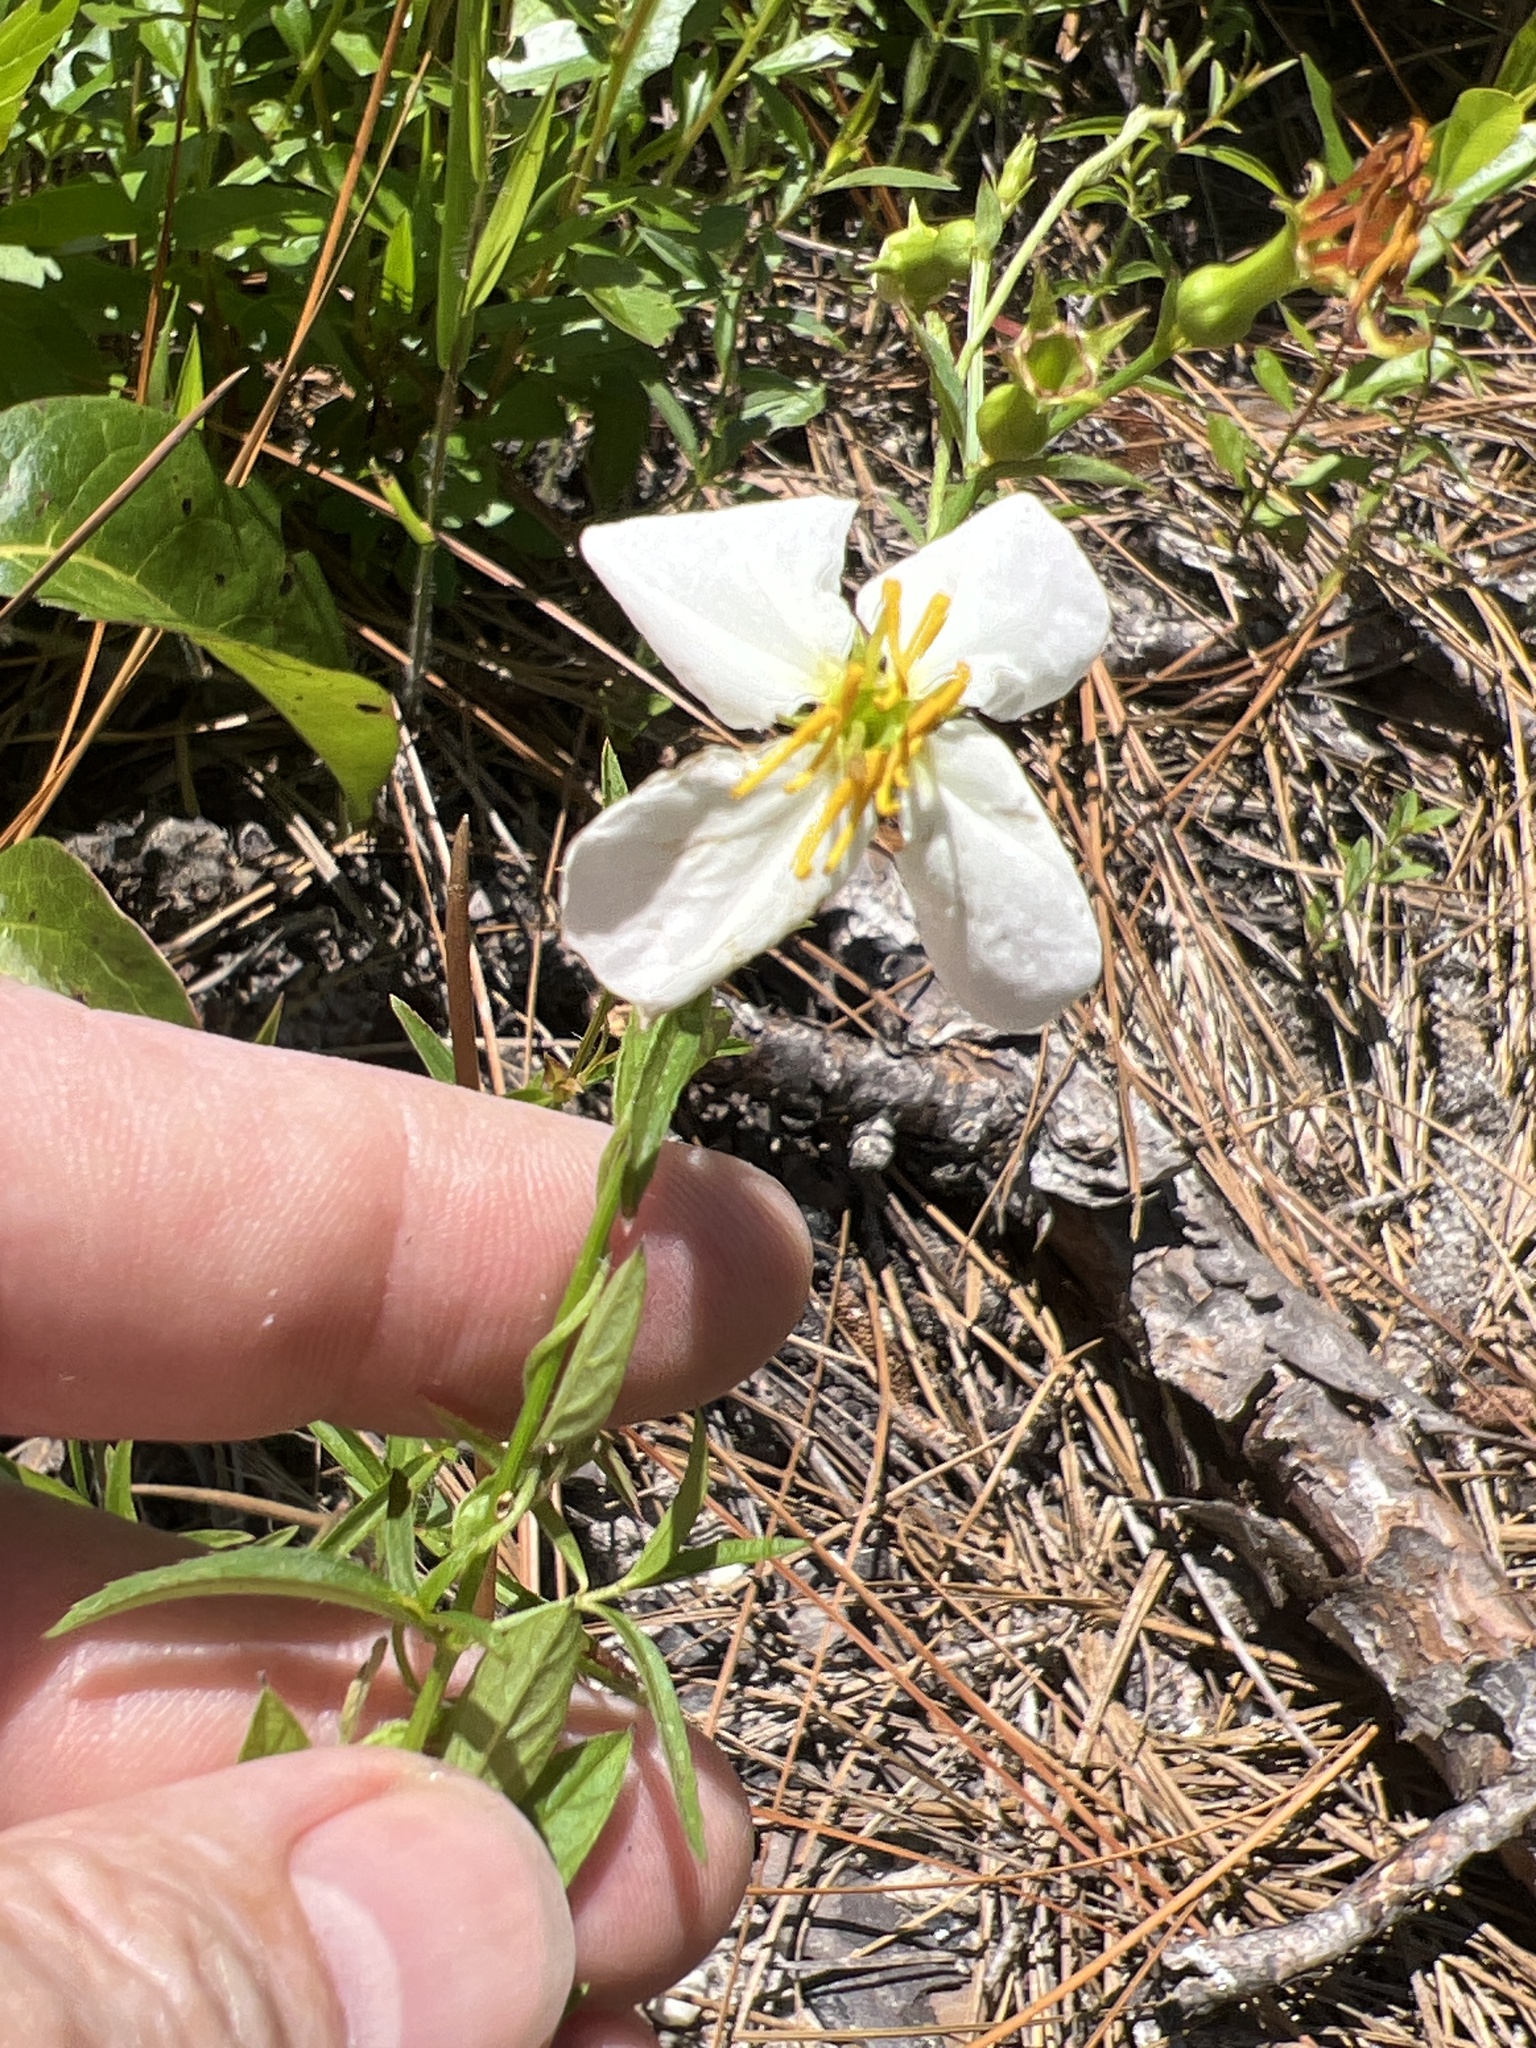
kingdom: Plantae
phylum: Tracheophyta
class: Magnoliopsida
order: Myrtales
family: Melastomataceae
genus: Rhexia
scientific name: Rhexia mariana
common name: Dull meadow-pitcher
